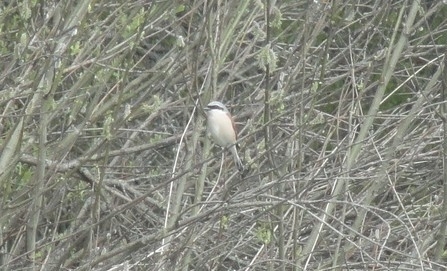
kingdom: Animalia
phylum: Chordata
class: Aves
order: Passeriformes
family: Laniidae
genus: Lanius
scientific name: Lanius collurio
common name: Red-backed shrike
